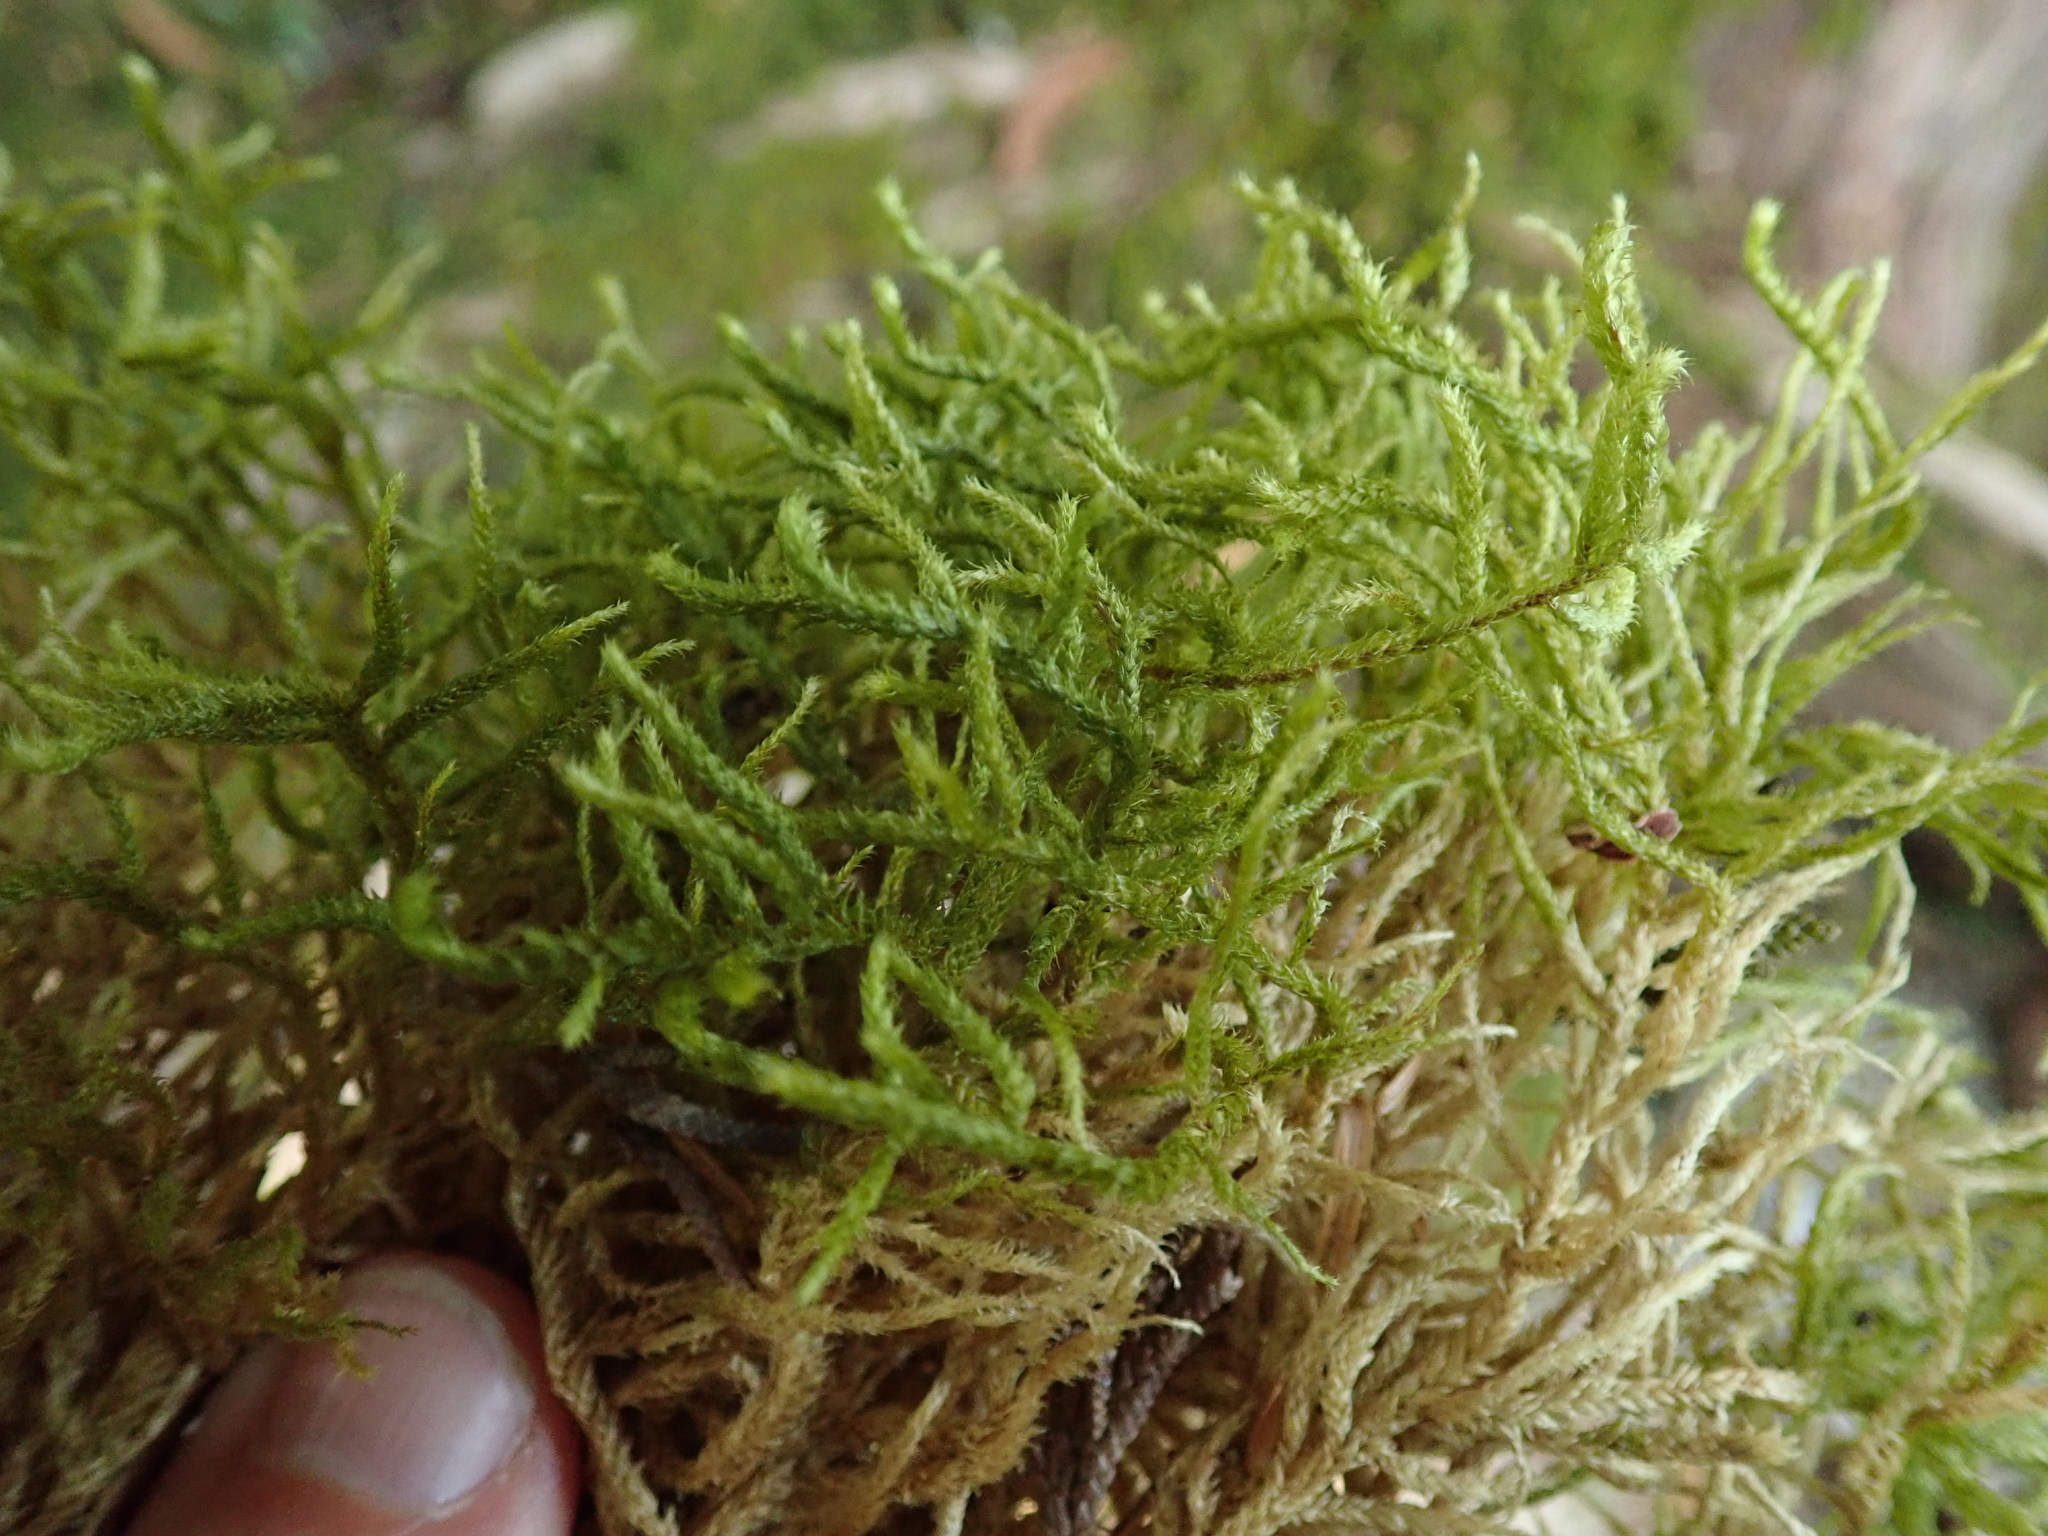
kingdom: Plantae
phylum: Bryophyta
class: Bryopsida
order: Hypnales
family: Antitrichiaceae
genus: Antitrichia
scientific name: Antitrichia curtipendula
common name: Pendulous wing-moss
